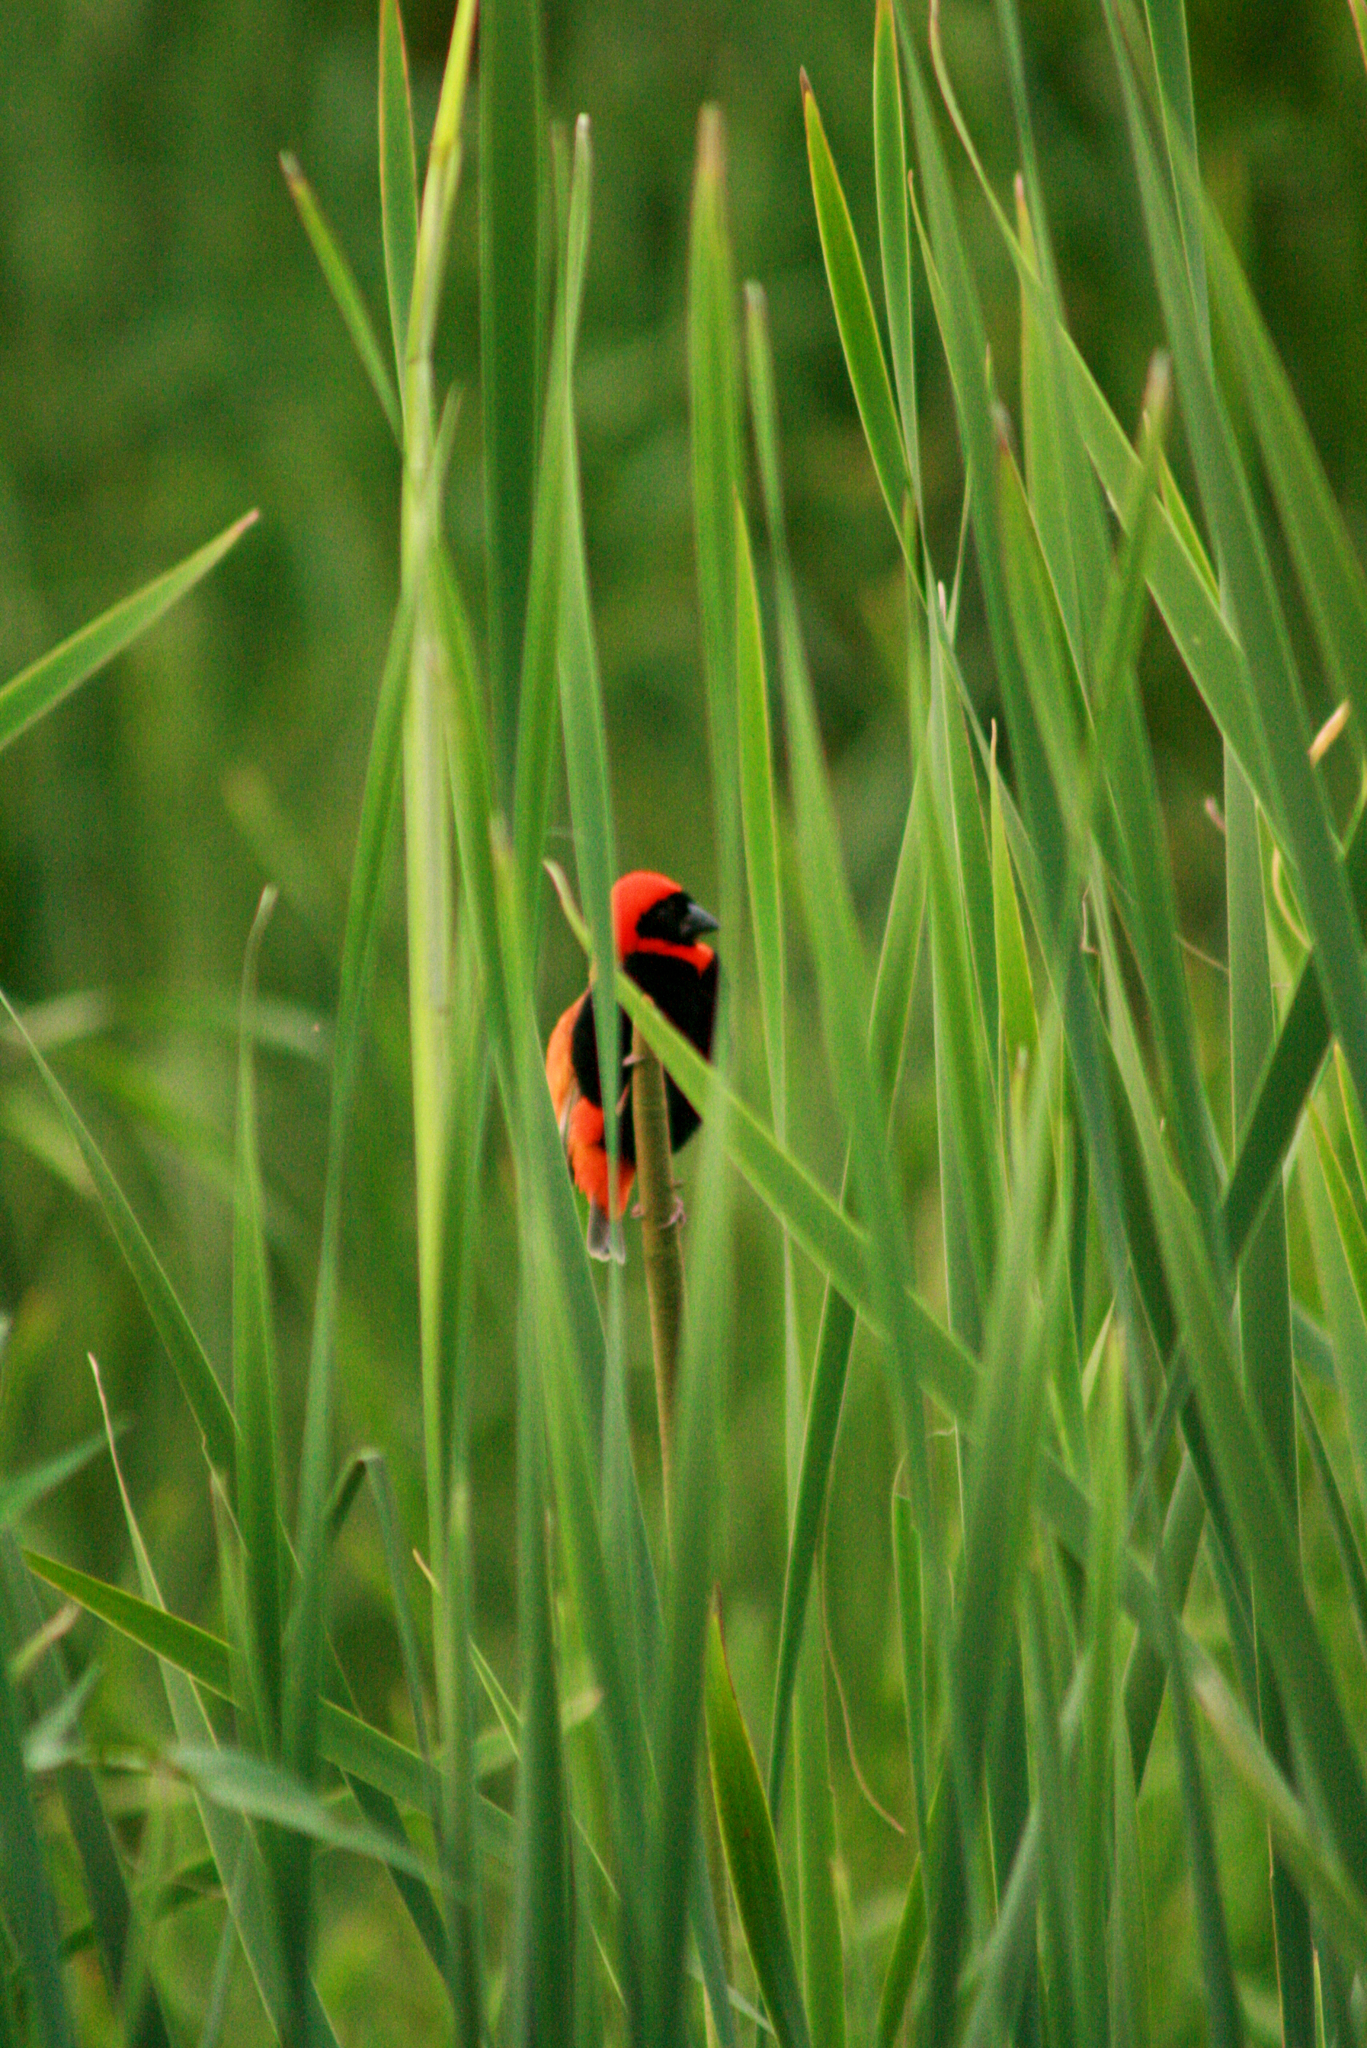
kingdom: Animalia
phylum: Chordata
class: Aves
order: Passeriformes
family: Ploceidae
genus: Euplectes
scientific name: Euplectes orix
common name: Southern red bishop
